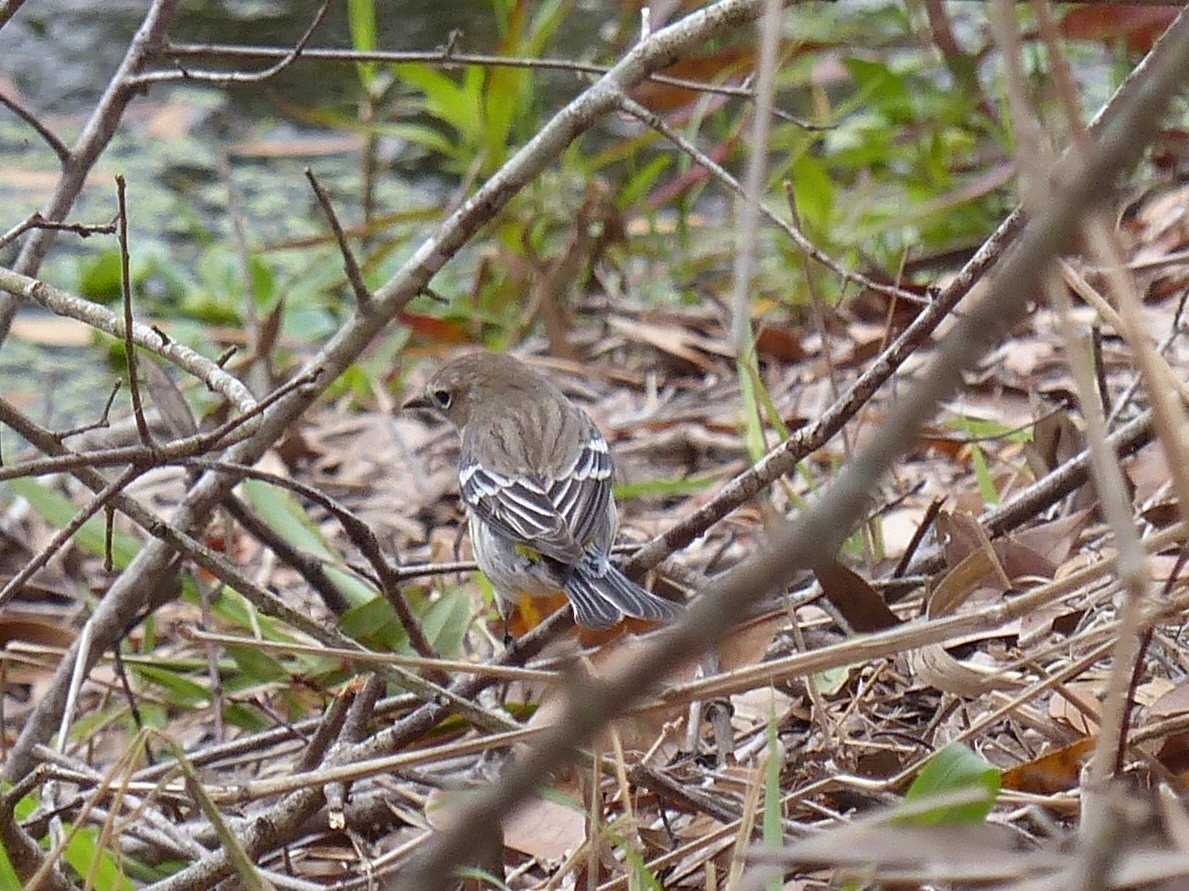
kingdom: Animalia
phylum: Chordata
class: Aves
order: Passeriformes
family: Parulidae
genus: Setophaga
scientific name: Setophaga coronata
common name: Myrtle warbler
